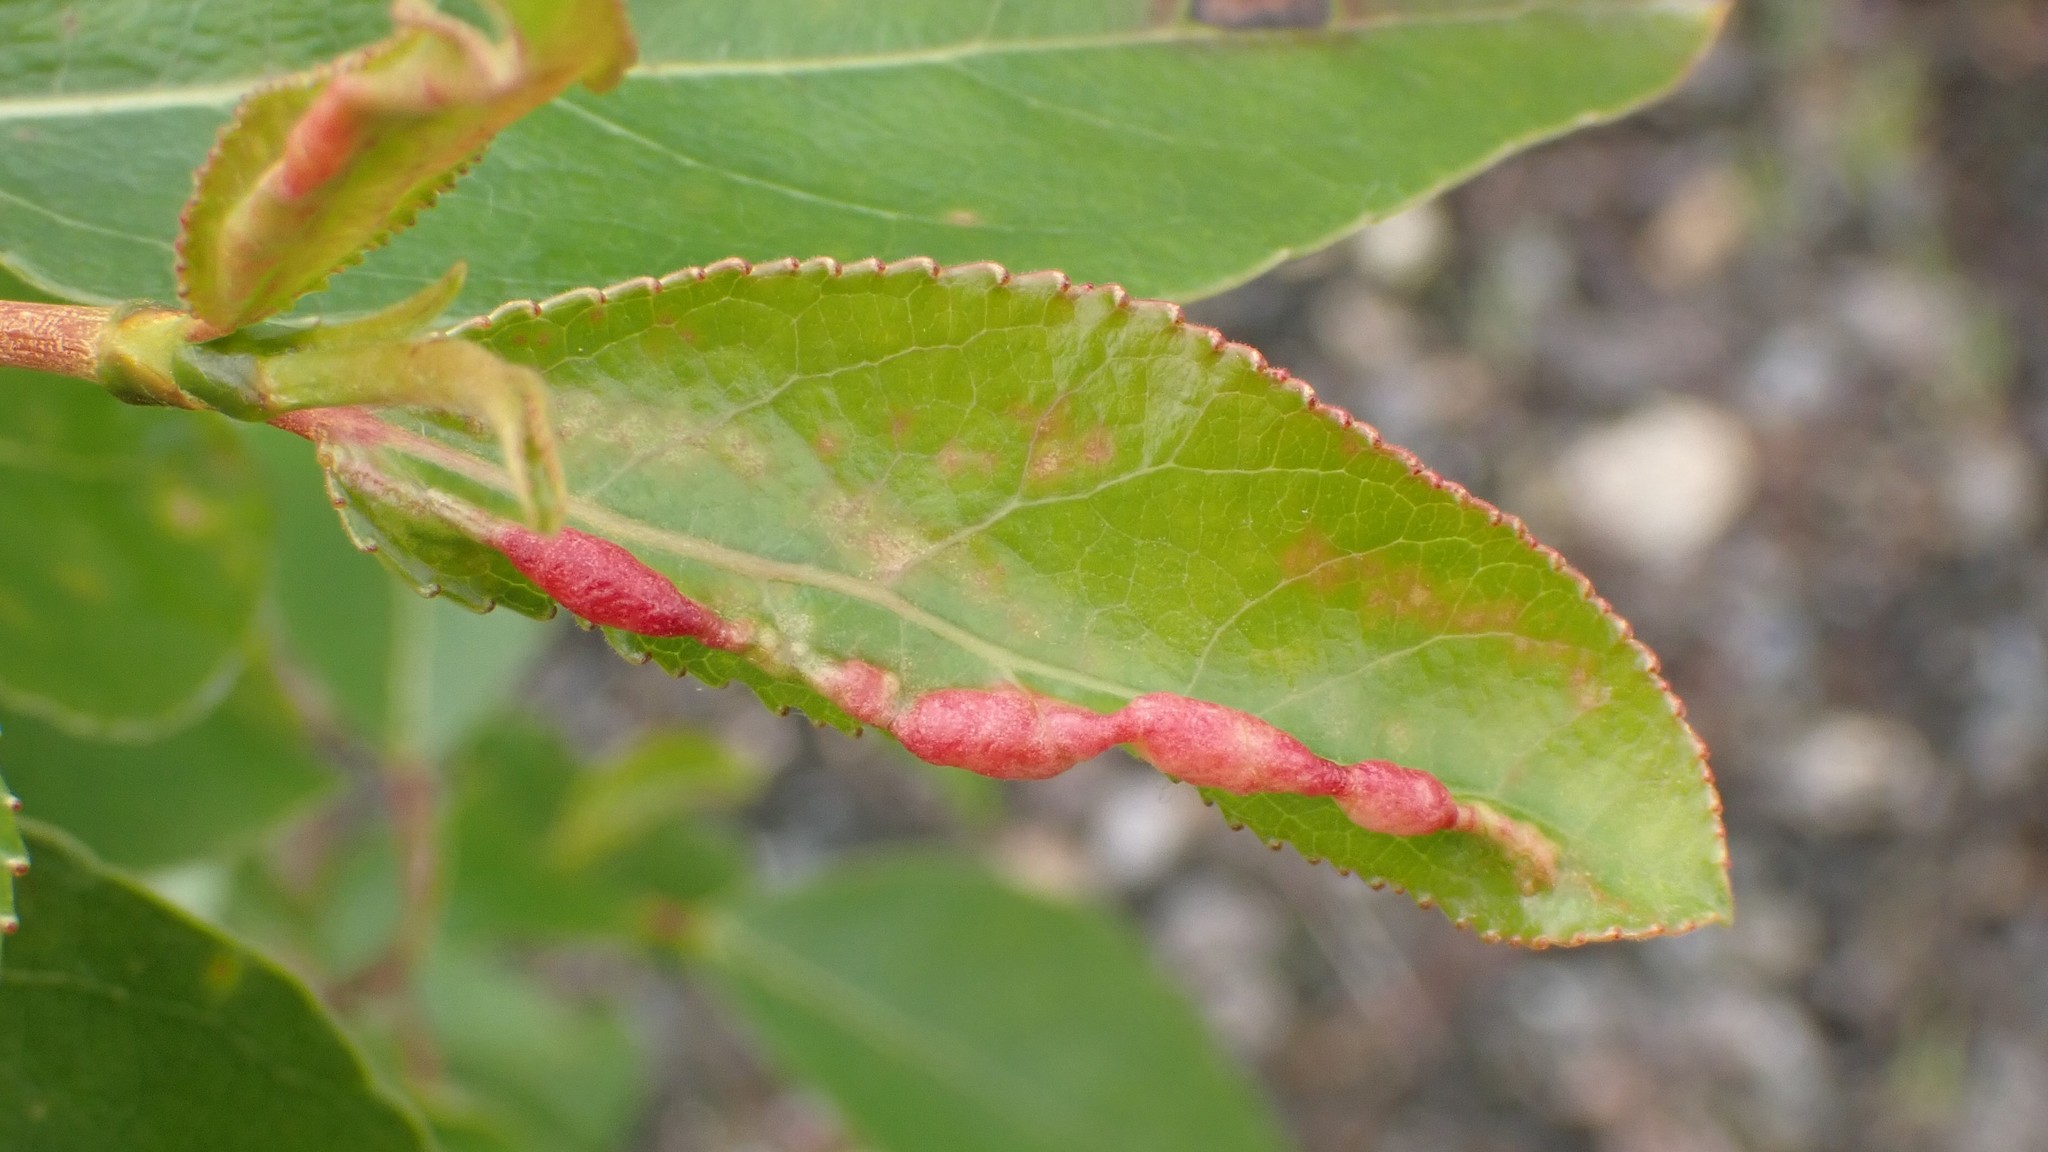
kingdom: Animalia
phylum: Arthropoda
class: Insecta
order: Hemiptera
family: Aphididae
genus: Thecabius
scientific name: Thecabius populimonilis
